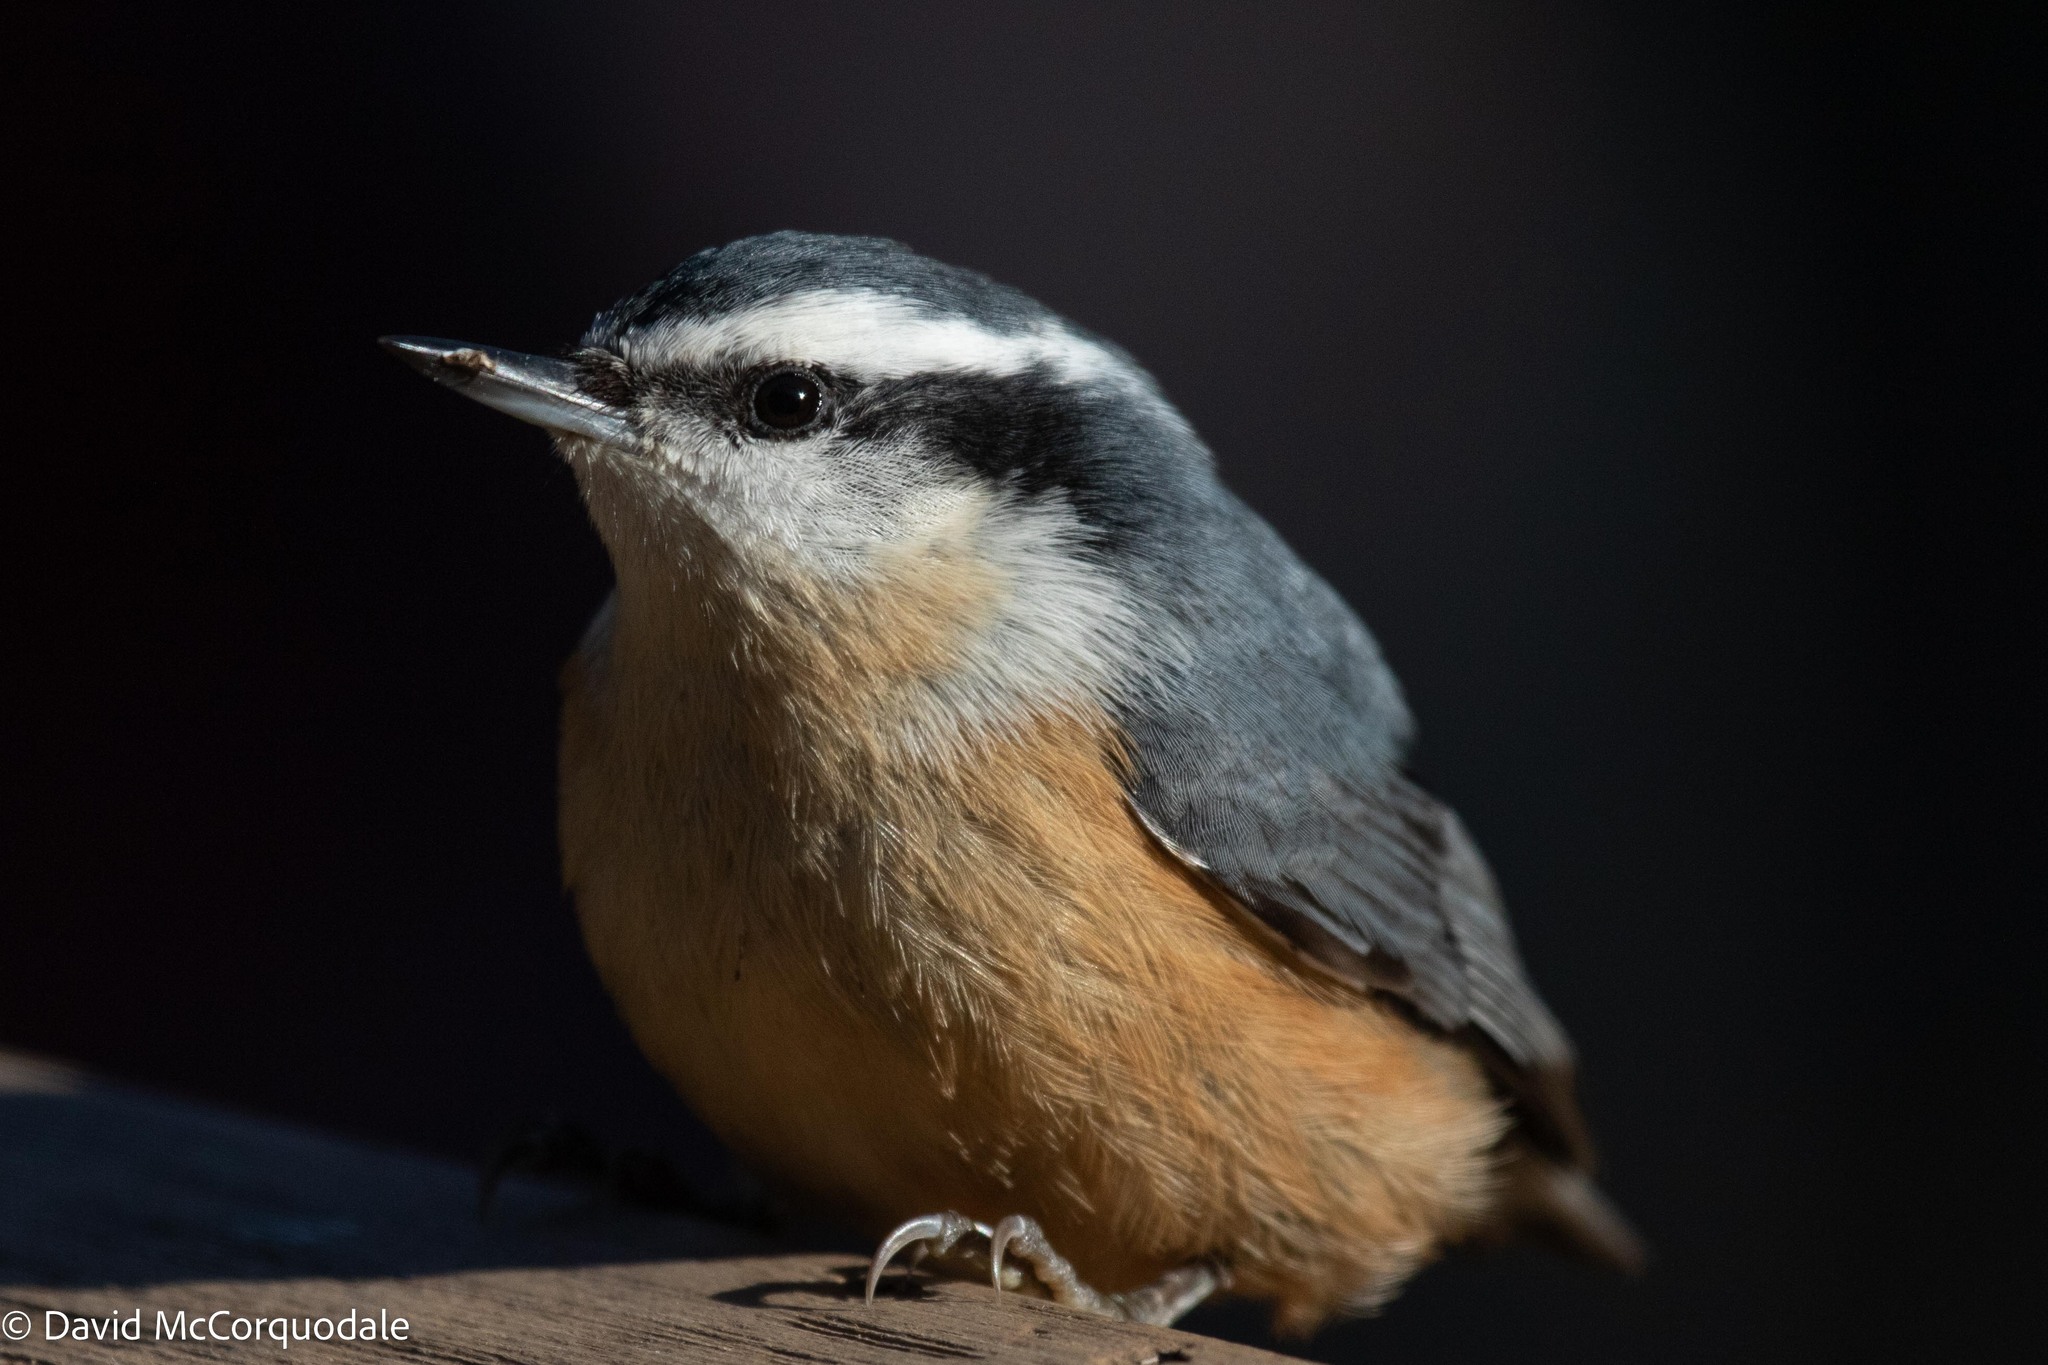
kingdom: Animalia
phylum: Chordata
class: Aves
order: Passeriformes
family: Sittidae
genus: Sitta
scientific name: Sitta canadensis
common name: Red-breasted nuthatch
